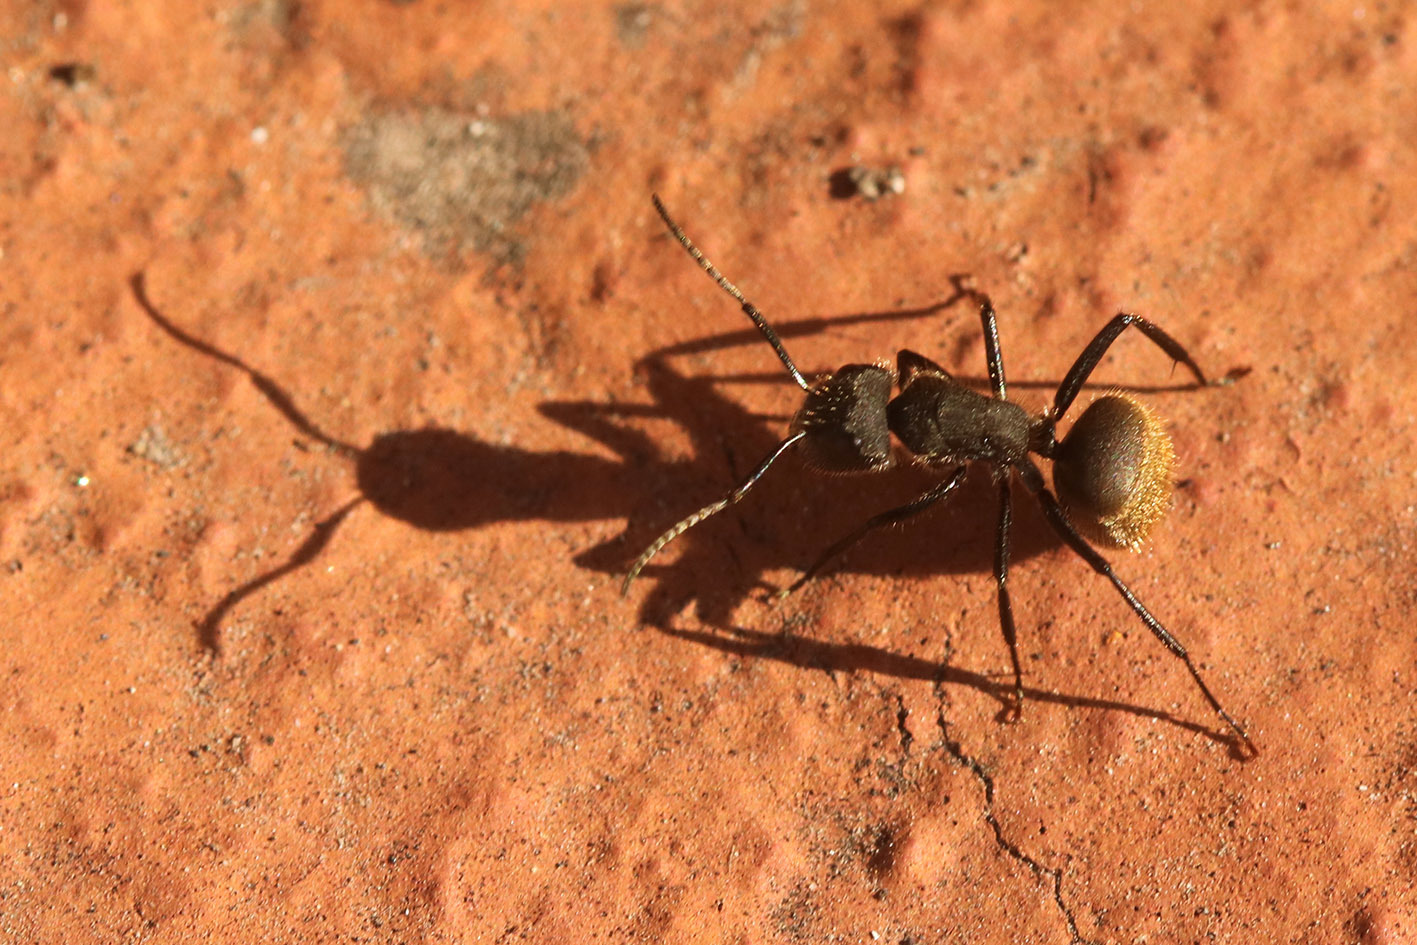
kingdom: Animalia
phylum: Arthropoda
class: Insecta
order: Hymenoptera
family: Formicidae
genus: Camponotus
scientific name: Camponotus mus
